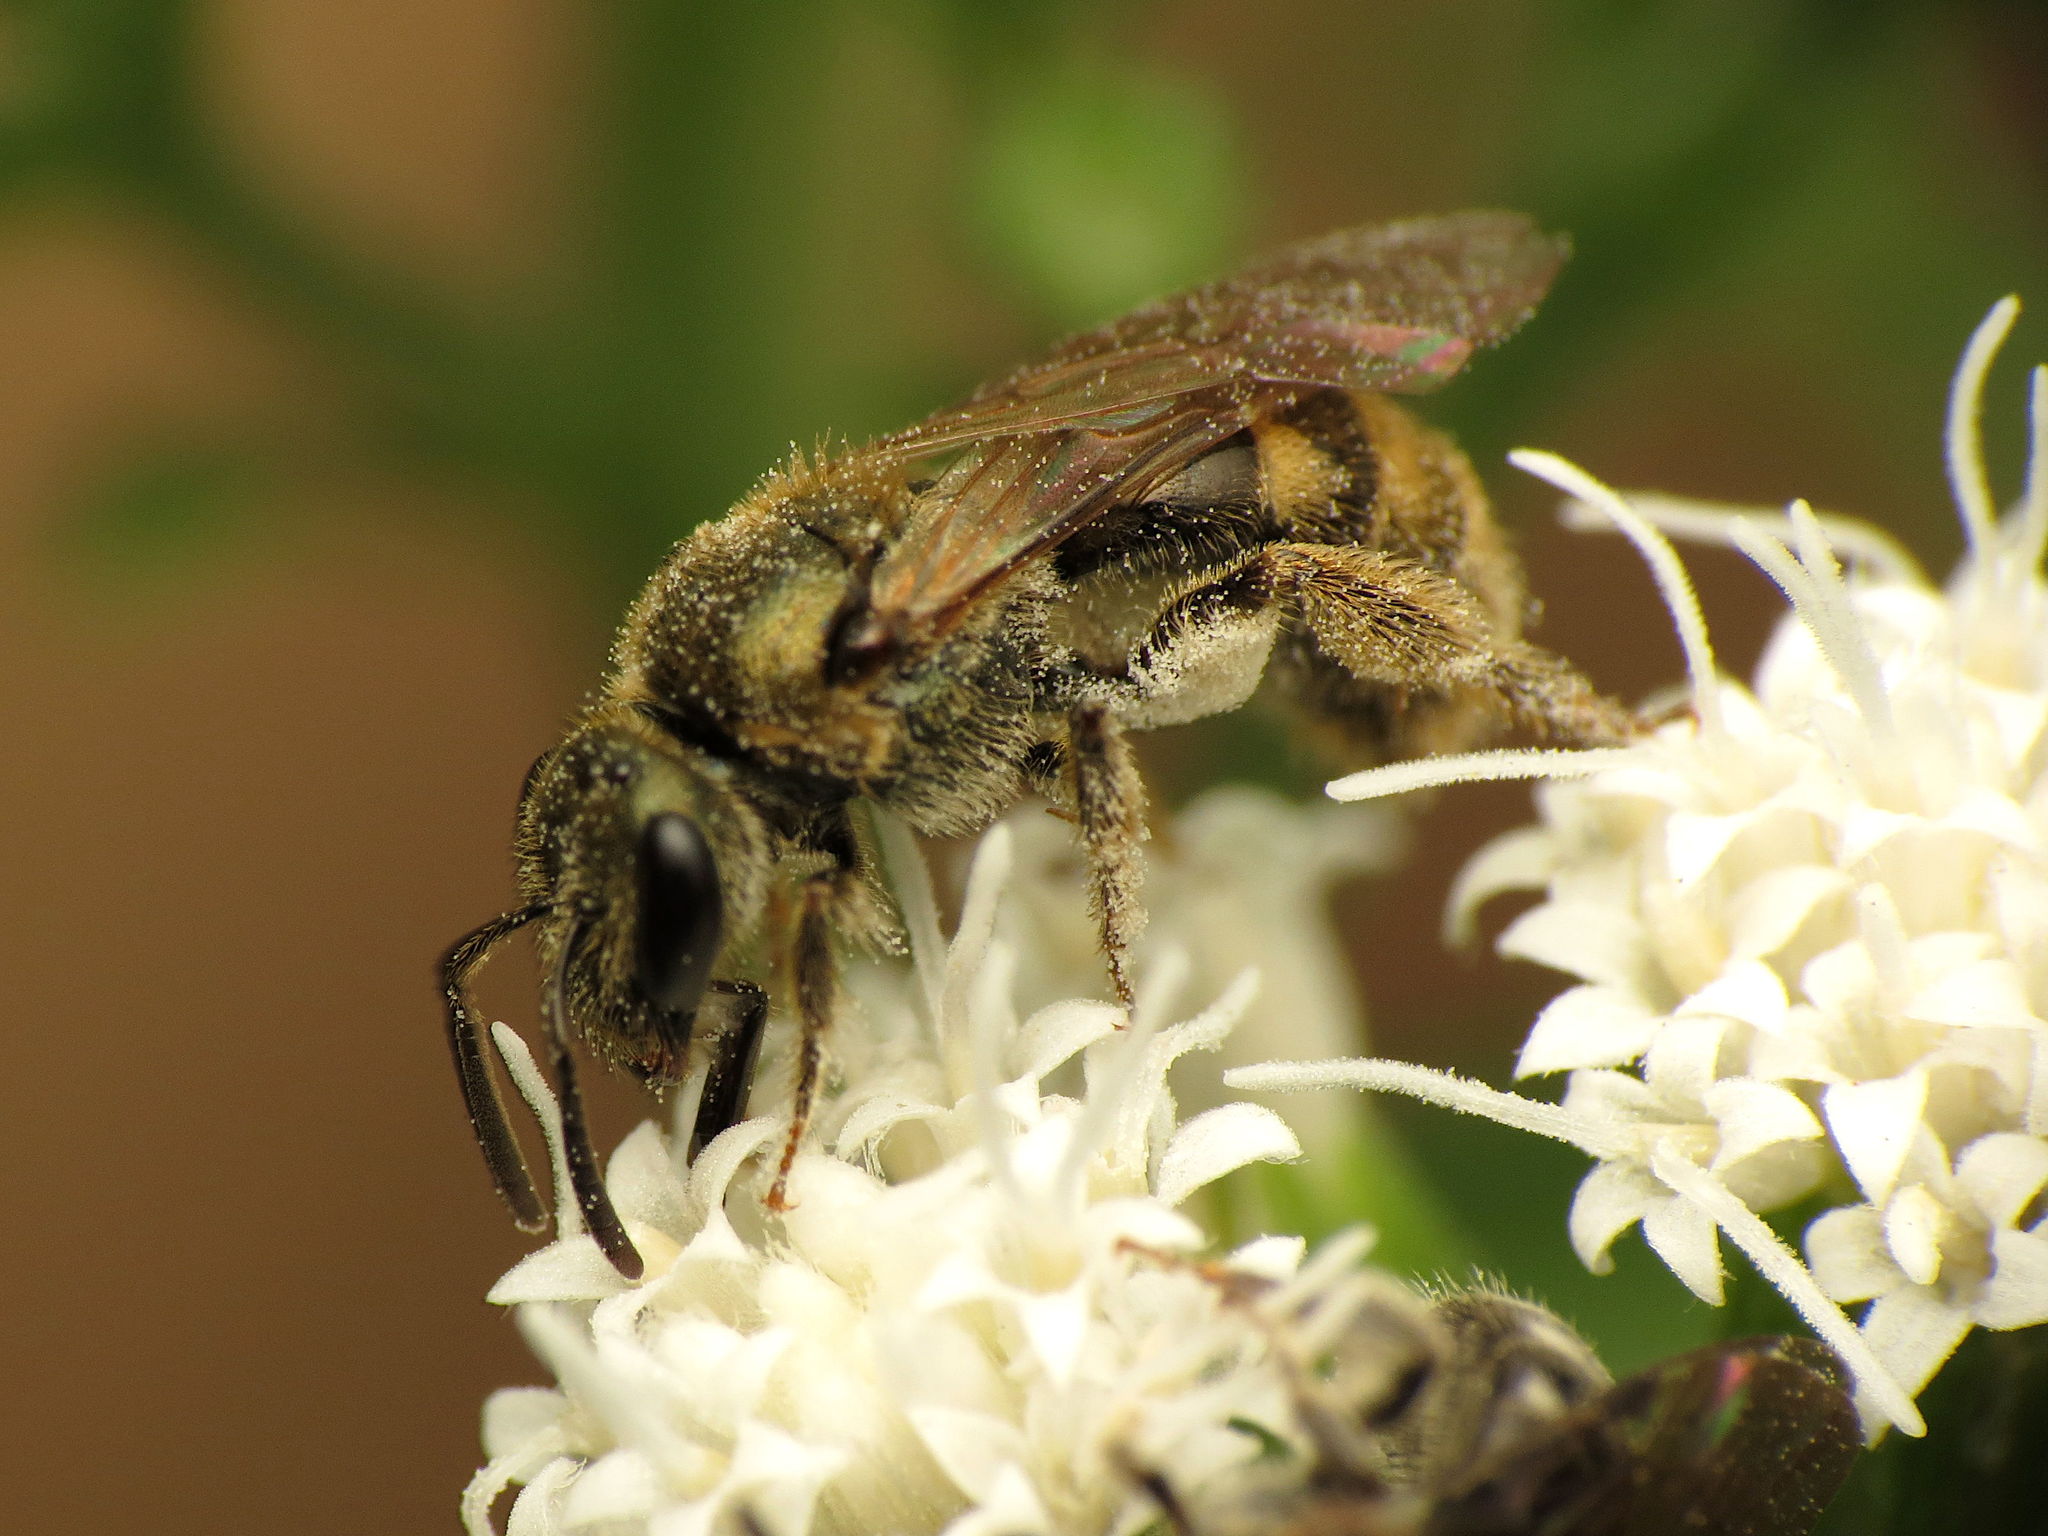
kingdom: Animalia
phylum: Arthropoda
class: Insecta
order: Hymenoptera
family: Halictidae
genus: Lasioglossum
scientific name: Lasioglossum cressonii
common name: Cresson's dialictus
